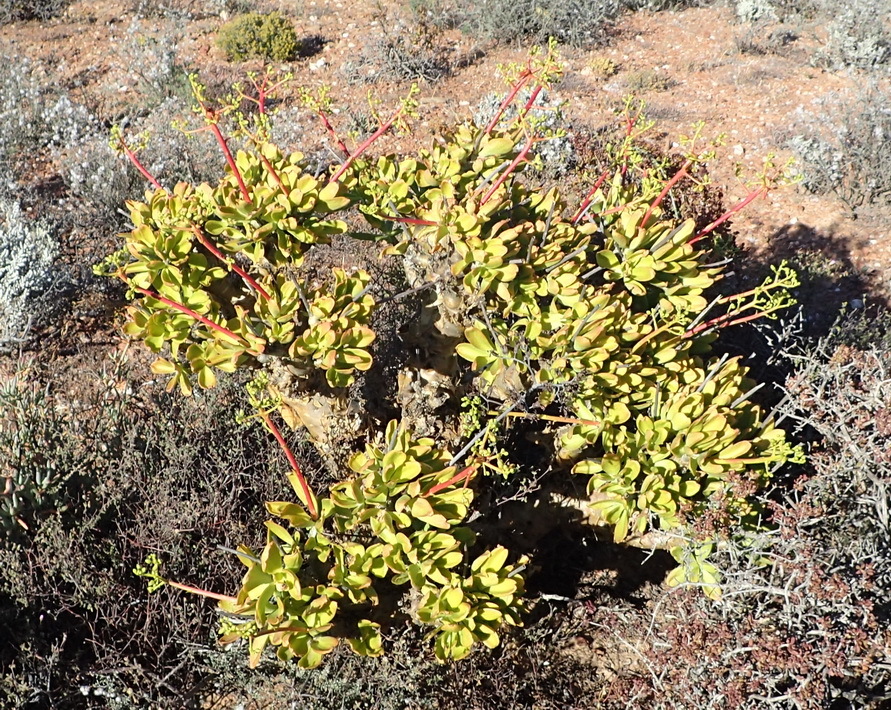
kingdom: Plantae
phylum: Tracheophyta
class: Magnoliopsida
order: Saxifragales
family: Crassulaceae
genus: Tylecodon
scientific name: Tylecodon paniculatus
